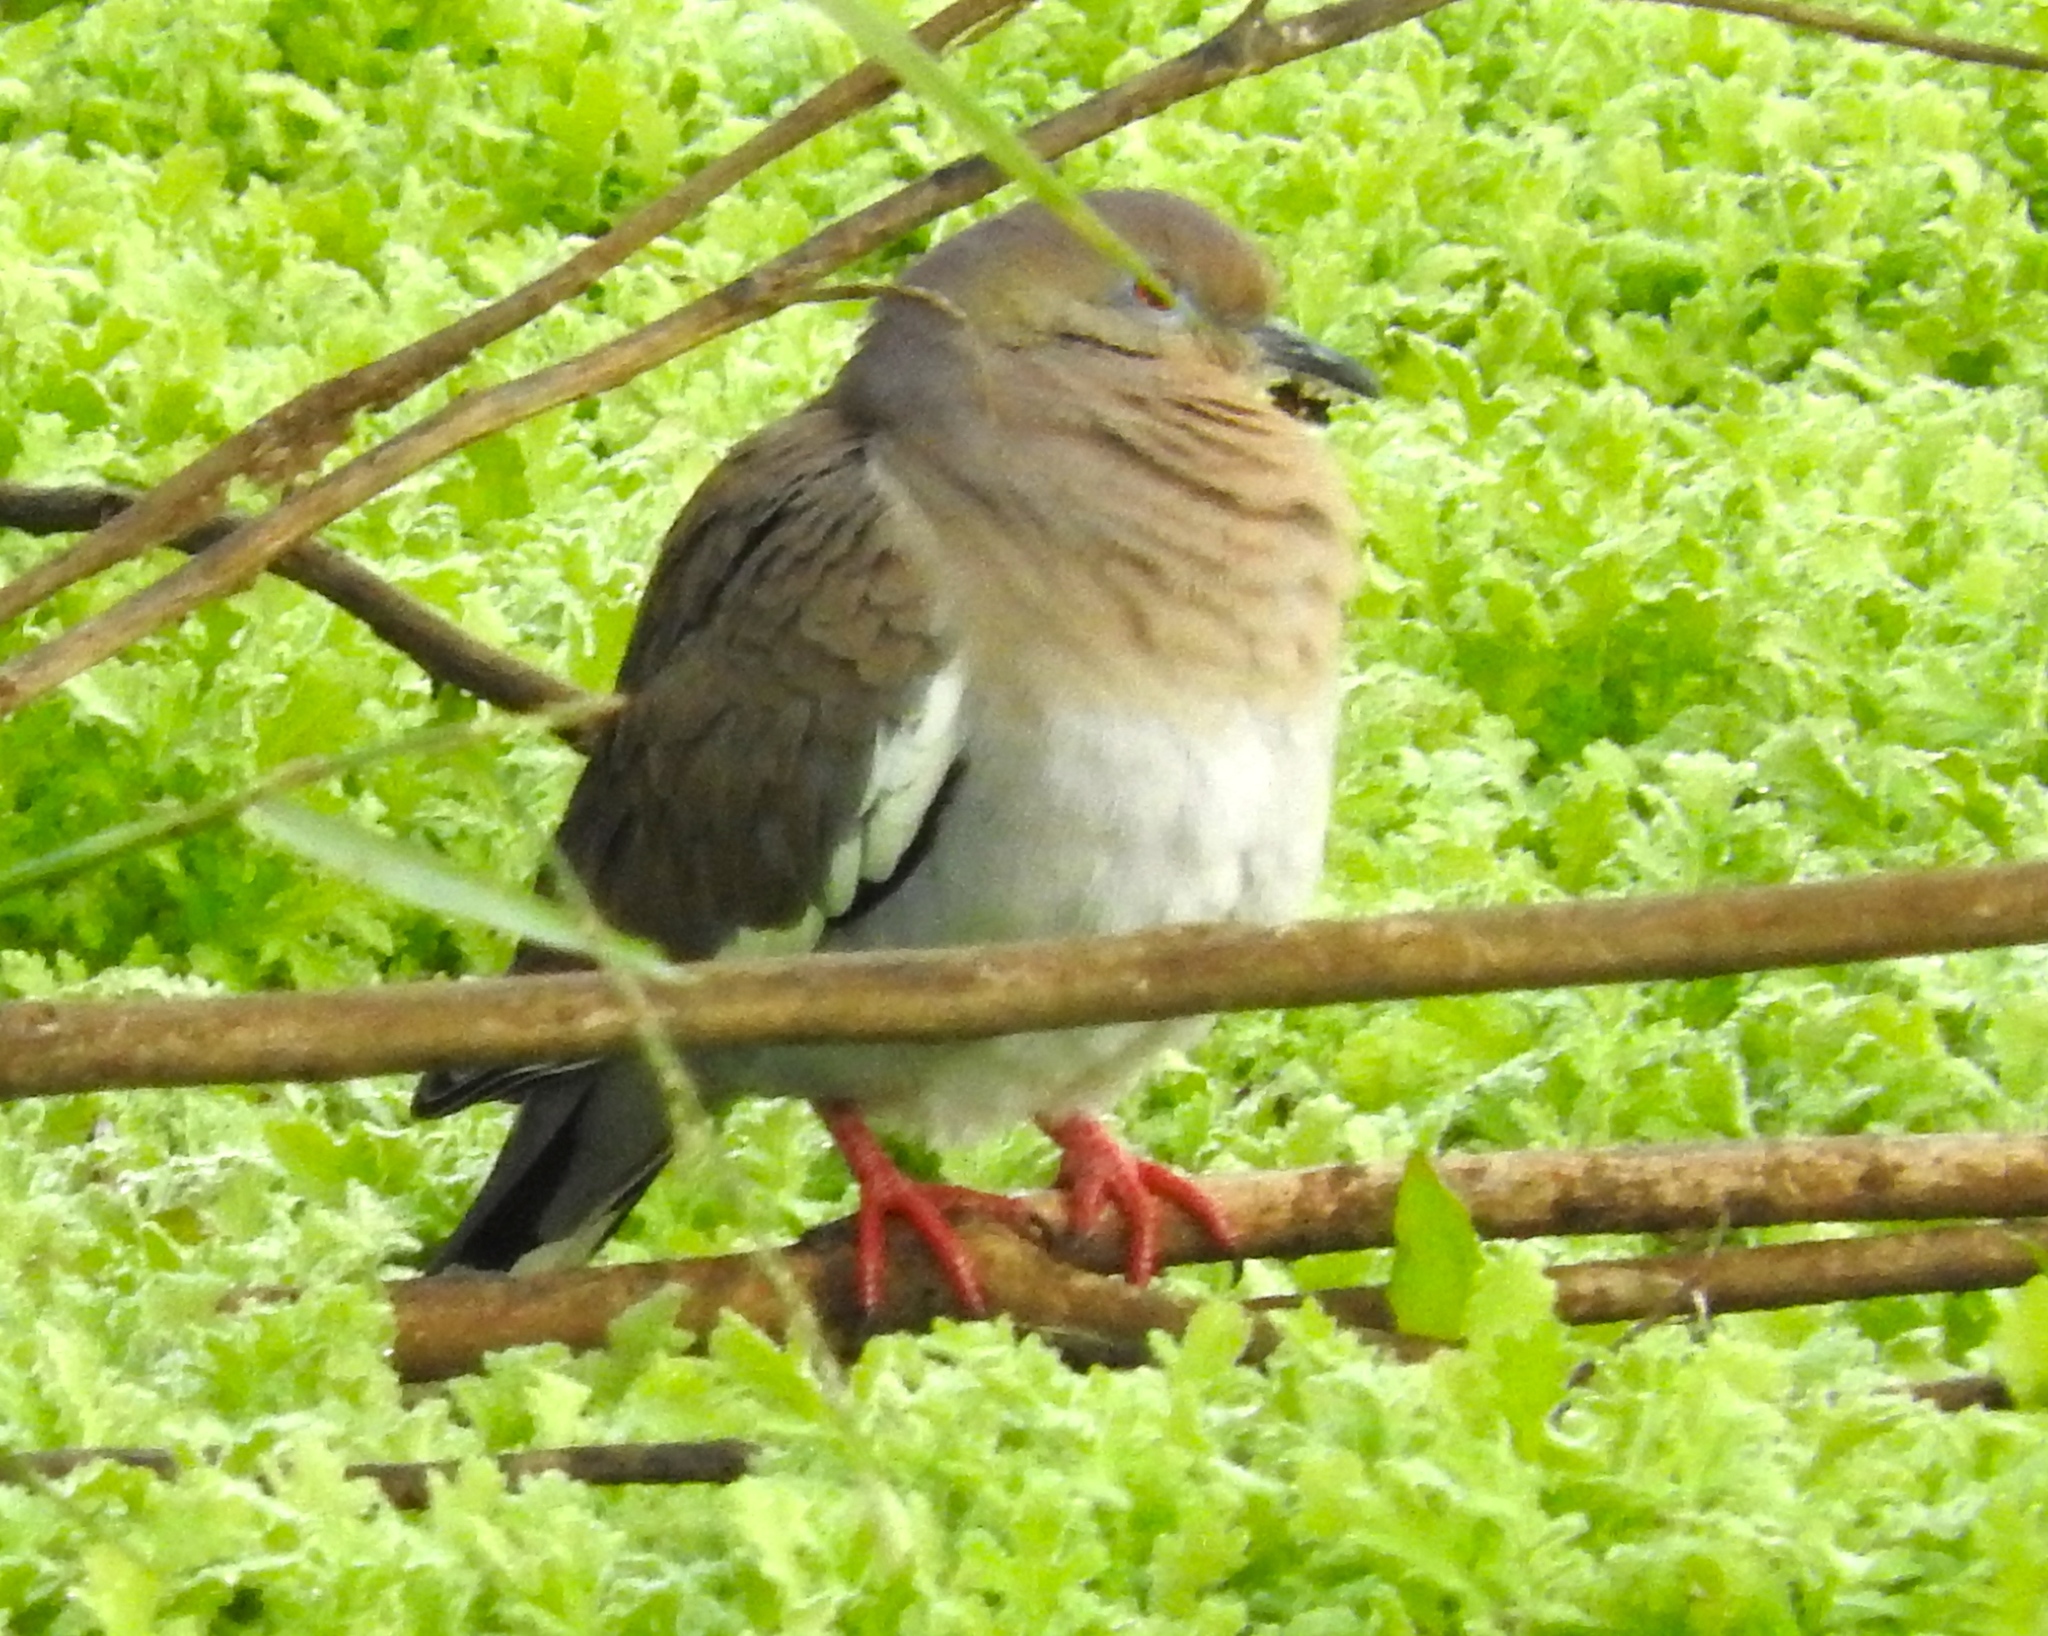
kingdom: Animalia
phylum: Chordata
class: Aves
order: Columbiformes
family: Columbidae
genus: Zenaida
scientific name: Zenaida asiatica
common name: White-winged dove
